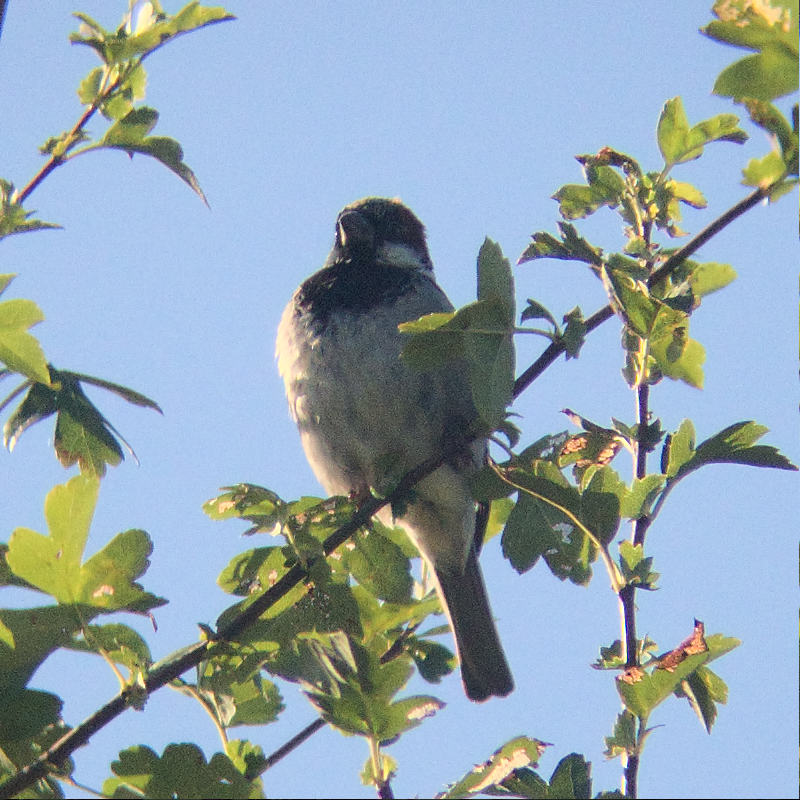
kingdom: Animalia
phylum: Chordata
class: Aves
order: Passeriformes
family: Passeridae
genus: Passer
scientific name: Passer domesticus
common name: House sparrow
